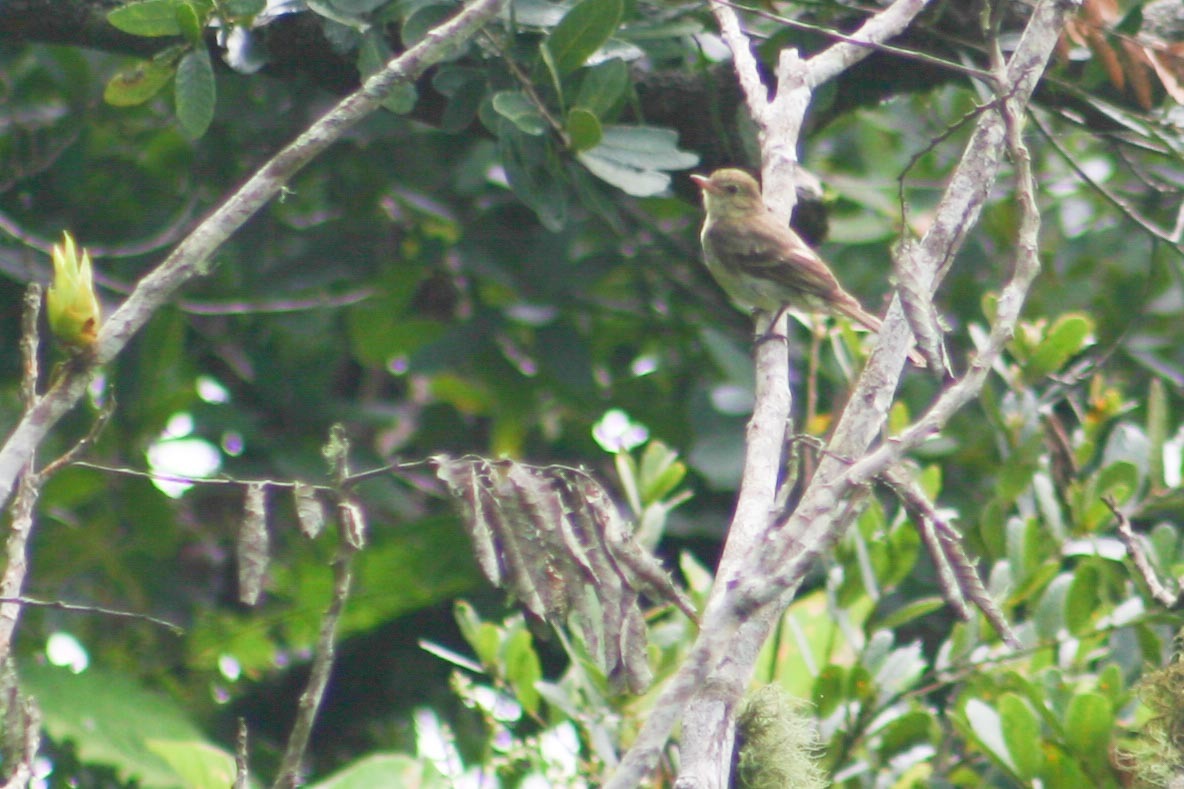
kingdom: Animalia
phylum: Chordata
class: Aves
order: Passeriformes
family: Tyrannidae
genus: Elaenia
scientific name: Elaenia frantzii
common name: Mountain elaenia
